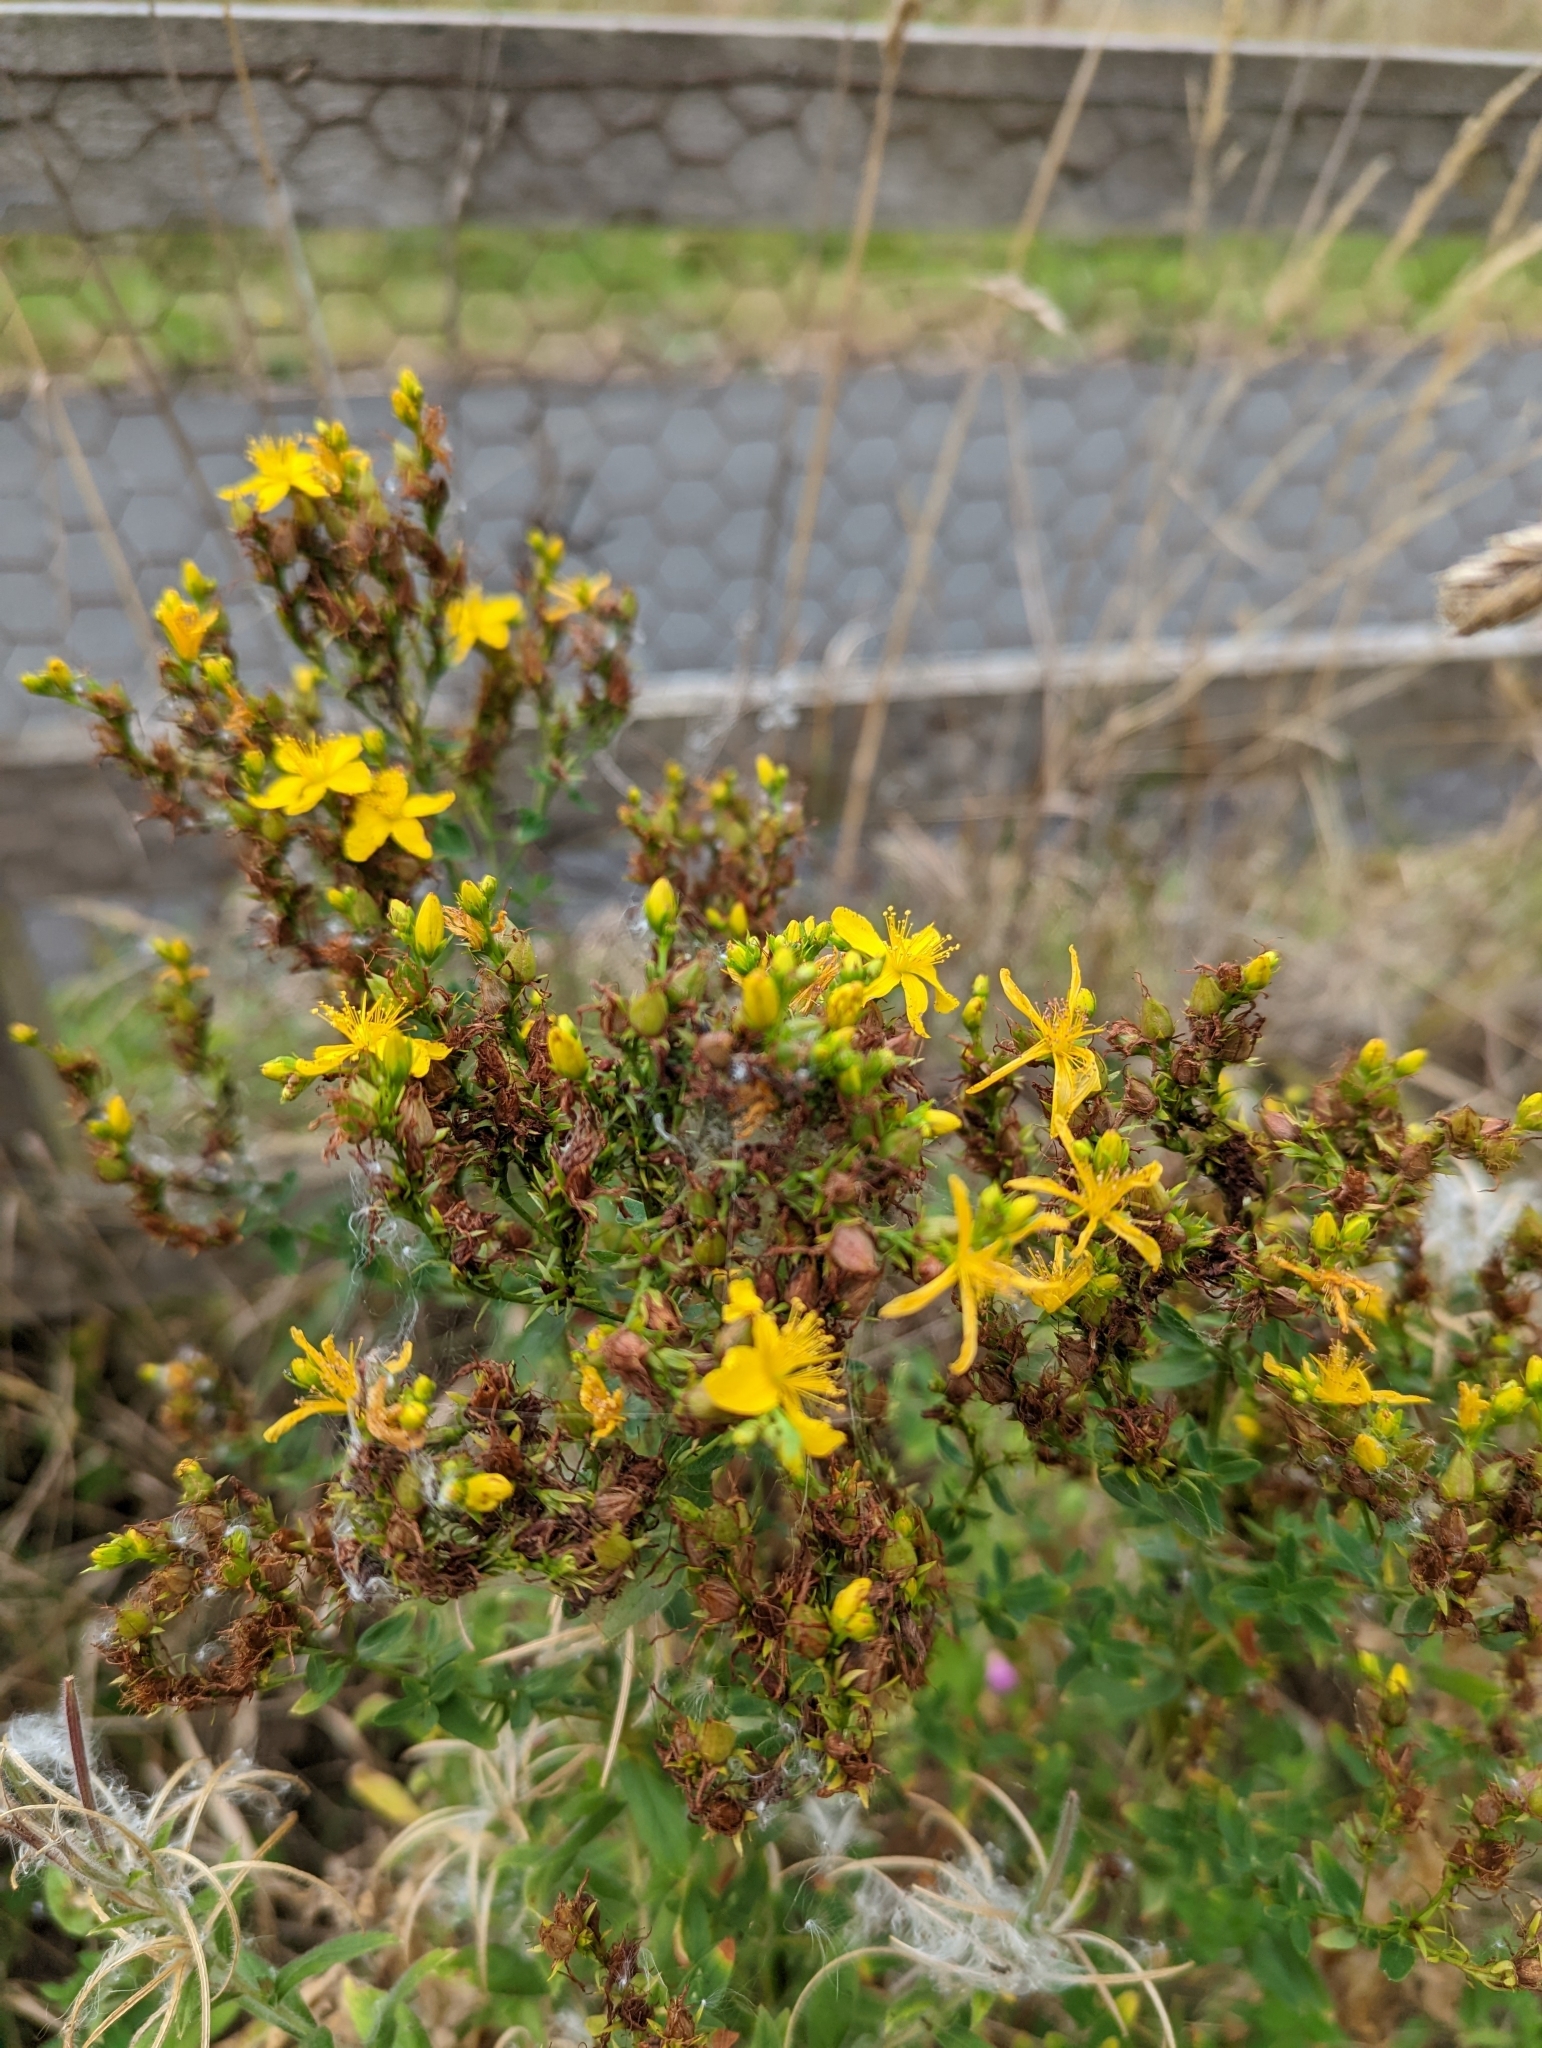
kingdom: Plantae
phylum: Tracheophyta
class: Magnoliopsida
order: Malpighiales
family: Hypericaceae
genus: Hypericum
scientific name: Hypericum perforatum
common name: Common st. johnswort
